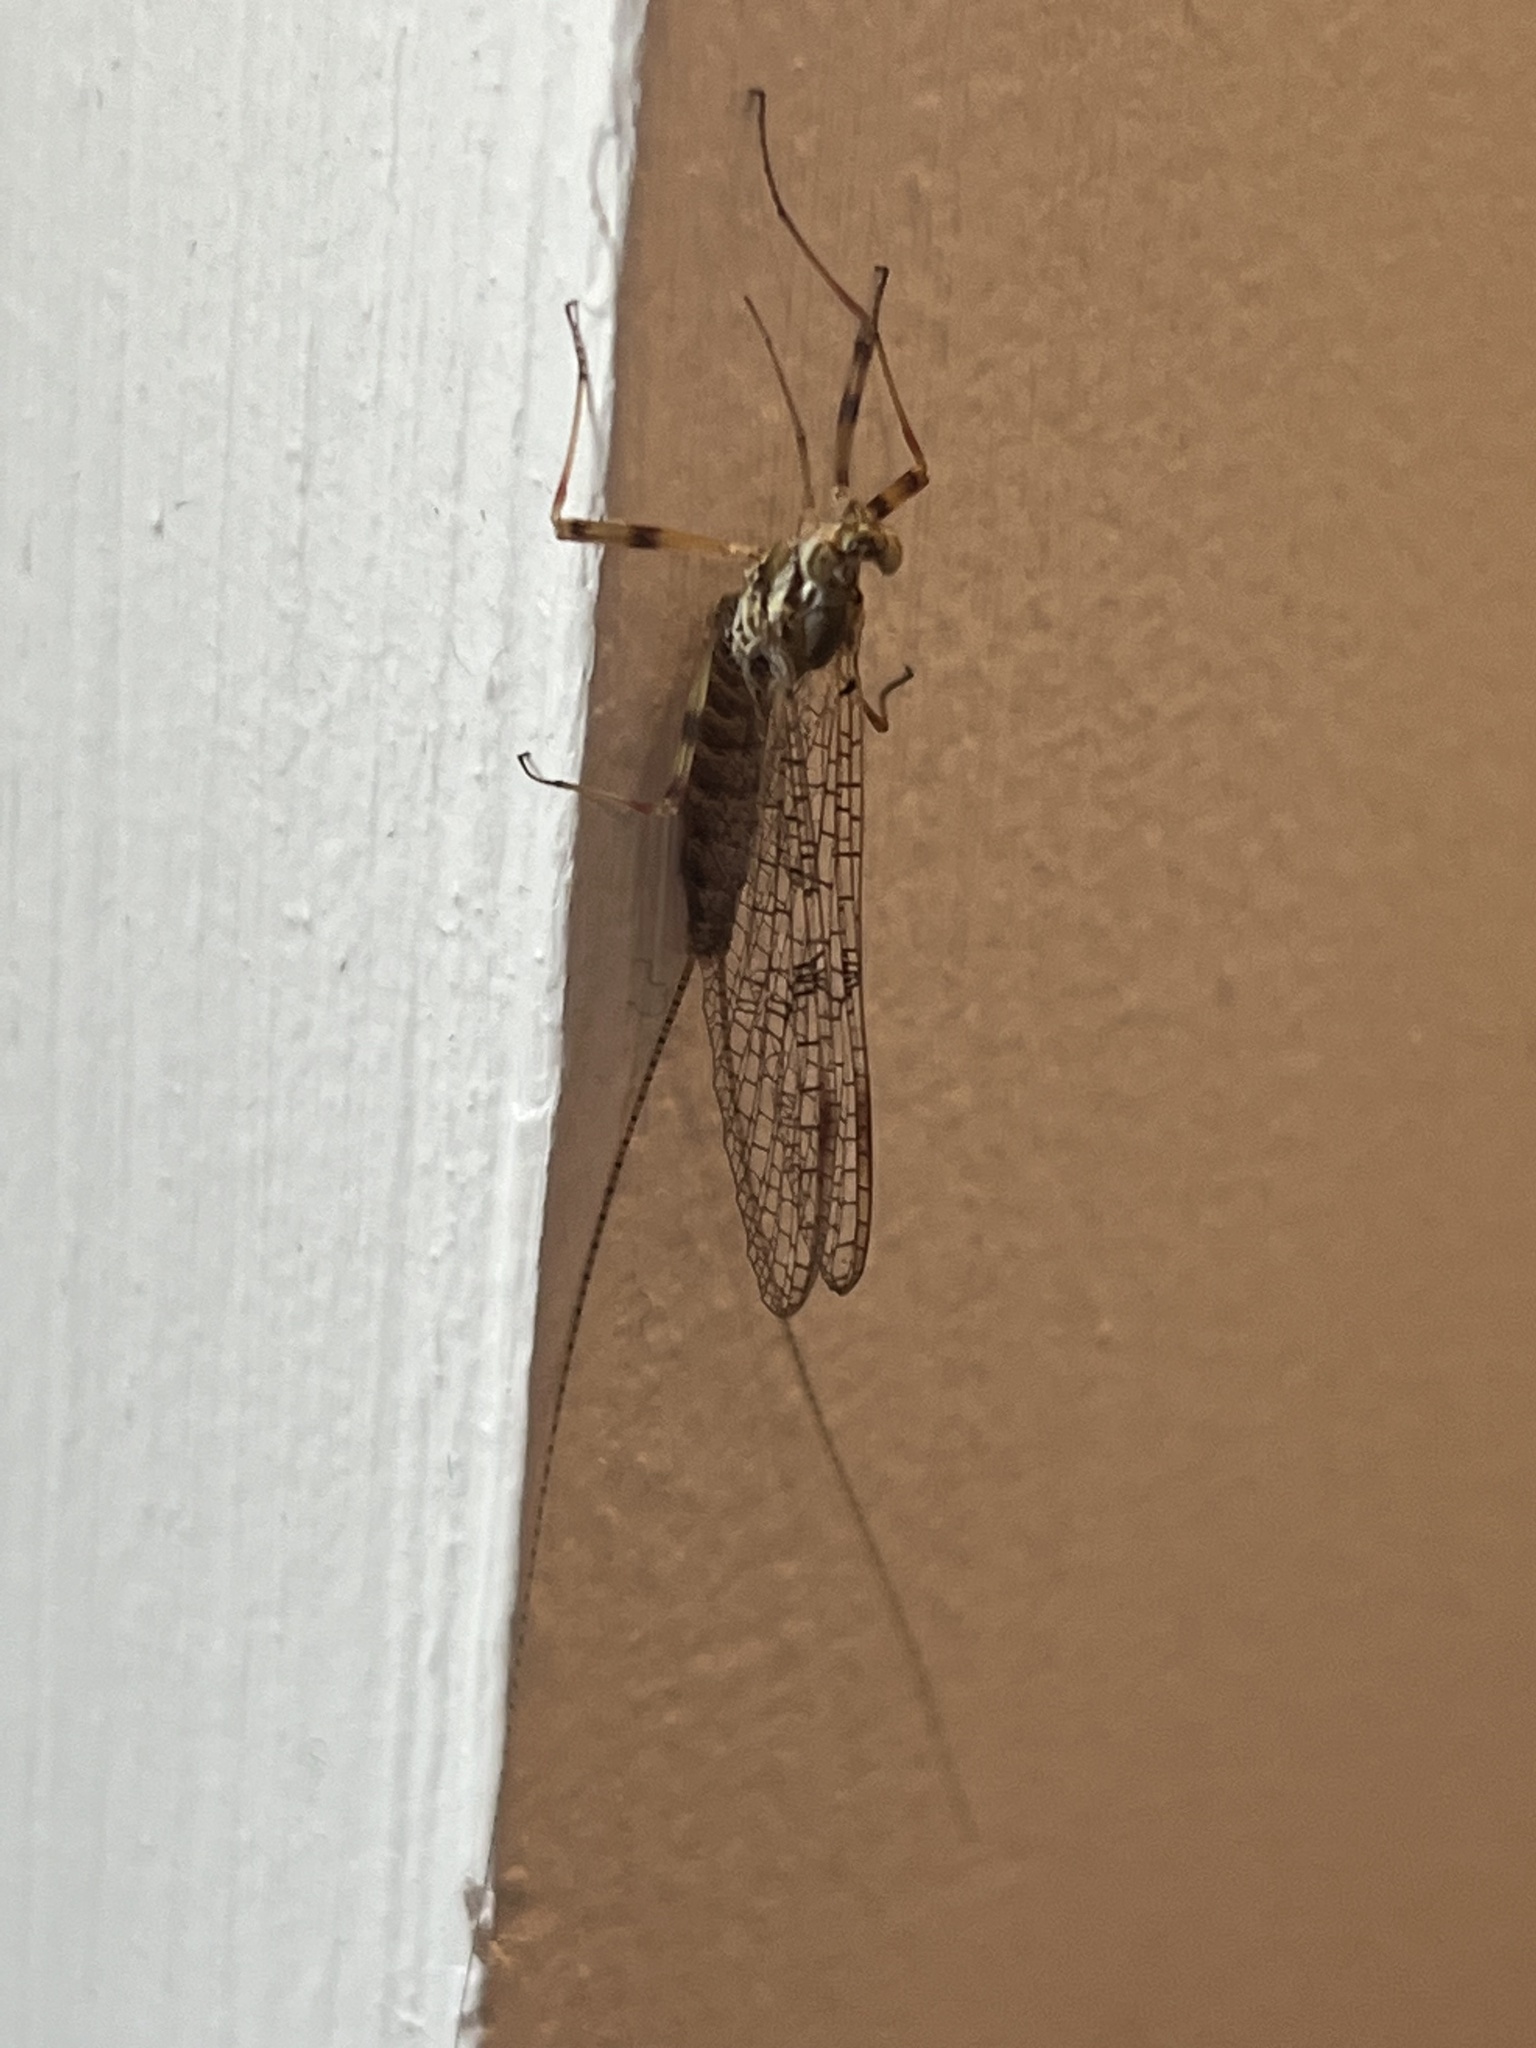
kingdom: Animalia
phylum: Arthropoda
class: Insecta
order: Ephemeroptera
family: Heptageniidae
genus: Stenonema
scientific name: Stenonema femoratum
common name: Dark cahill
